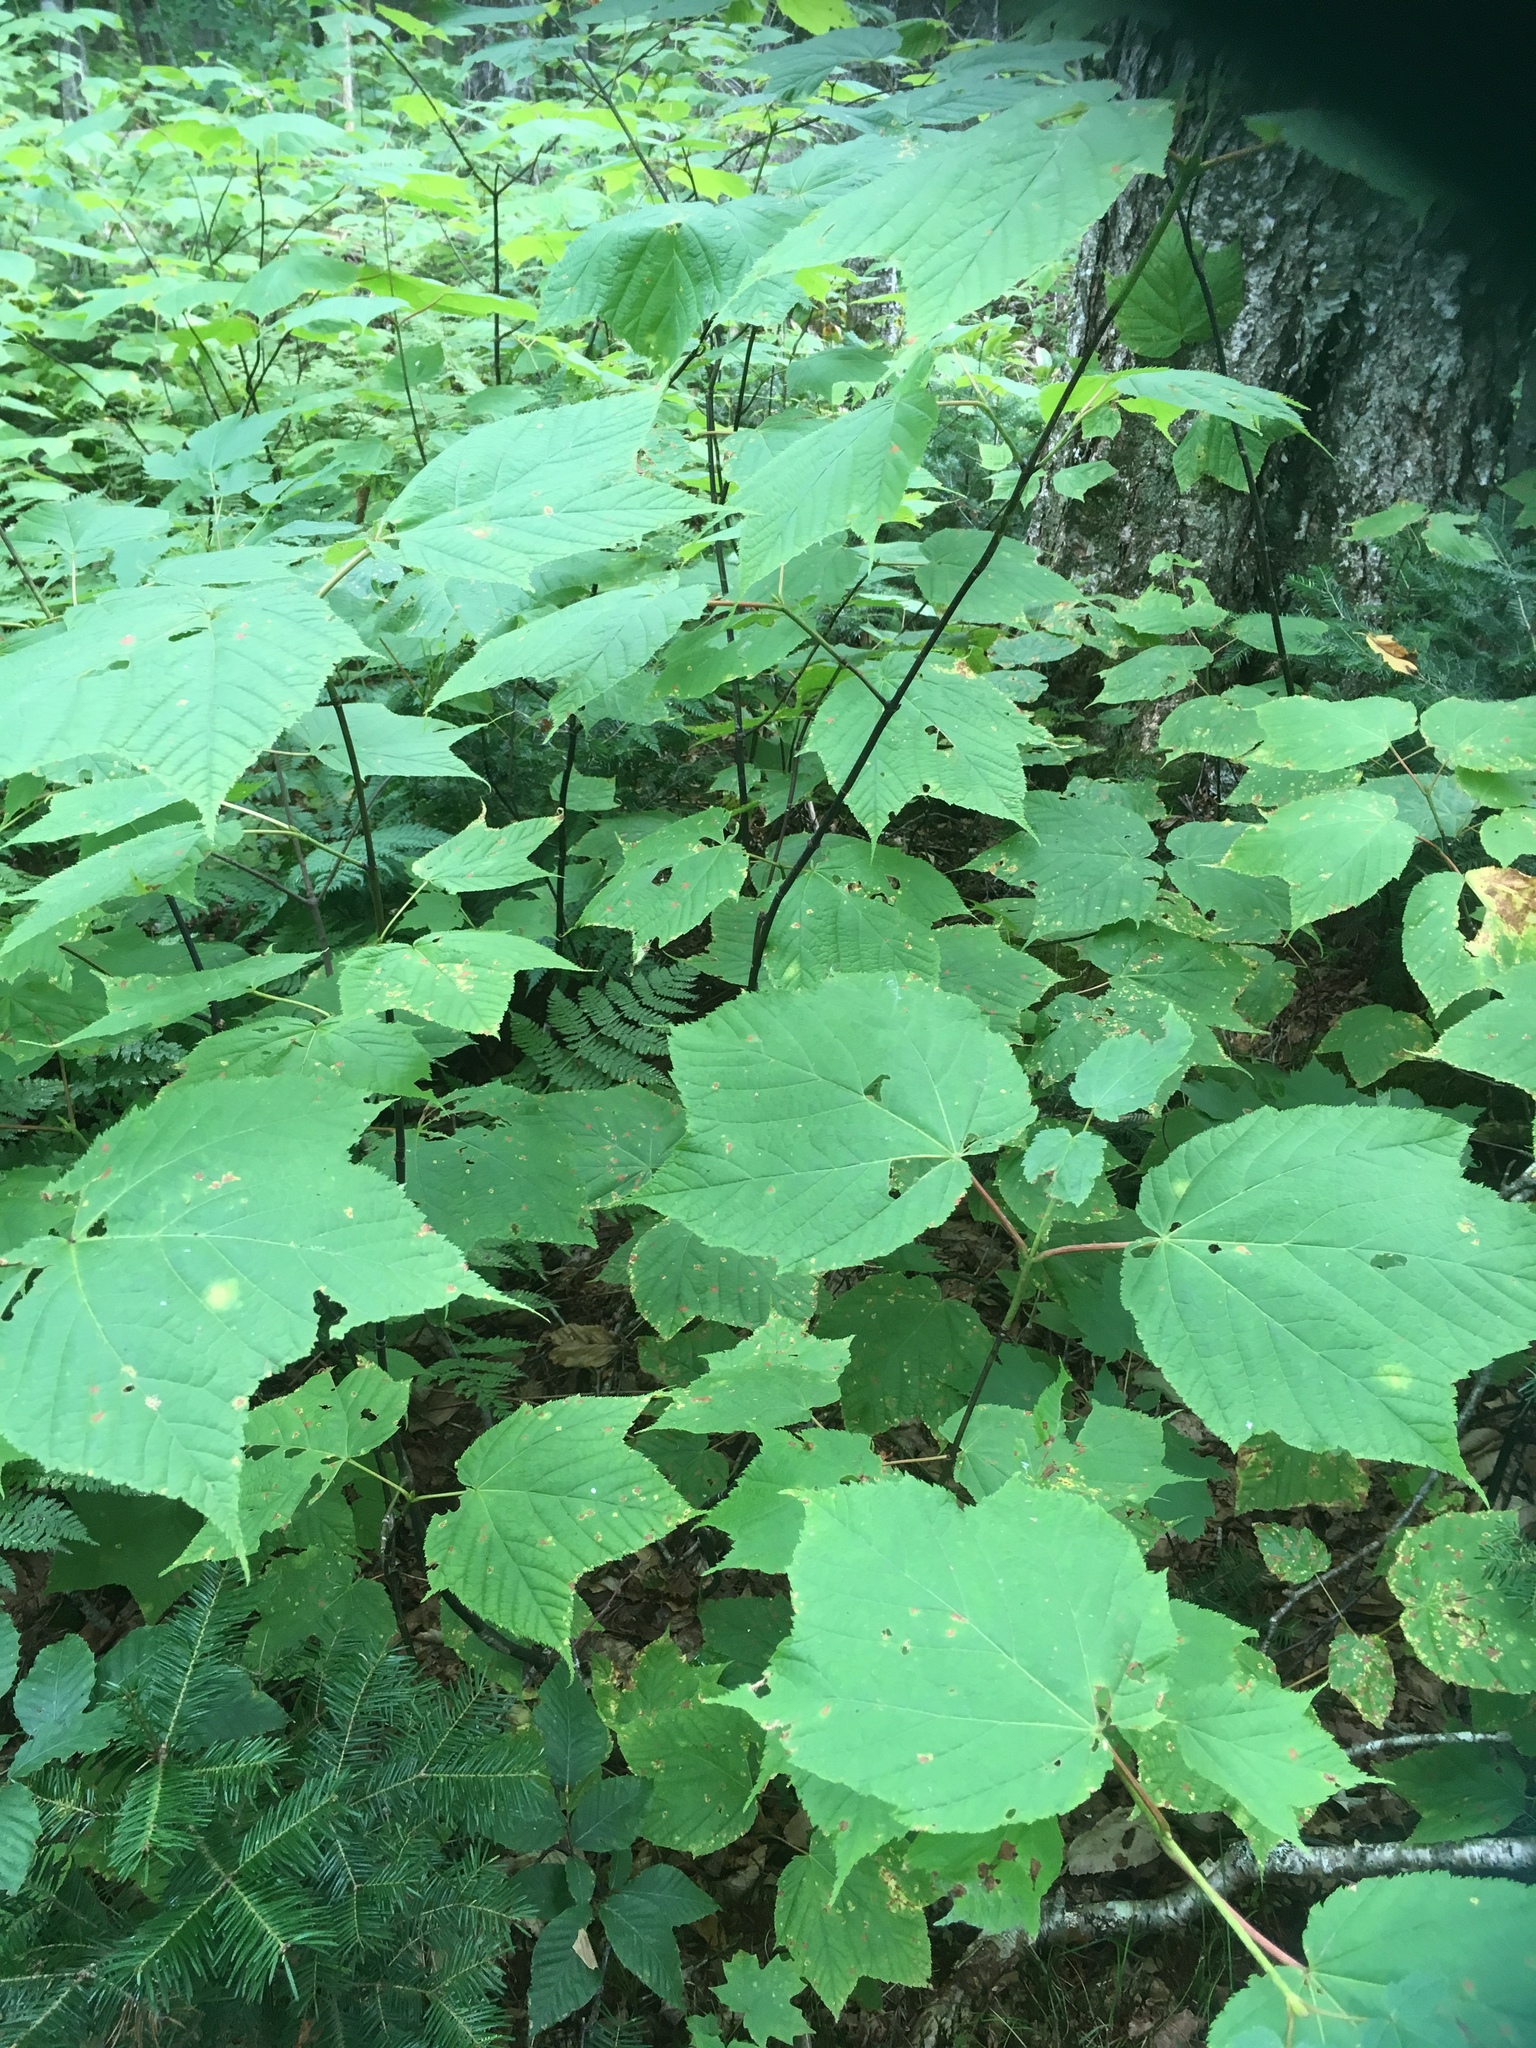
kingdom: Plantae
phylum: Tracheophyta
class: Magnoliopsida
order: Sapindales
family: Sapindaceae
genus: Acer
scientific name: Acer pensylvanicum
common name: Moosewood
